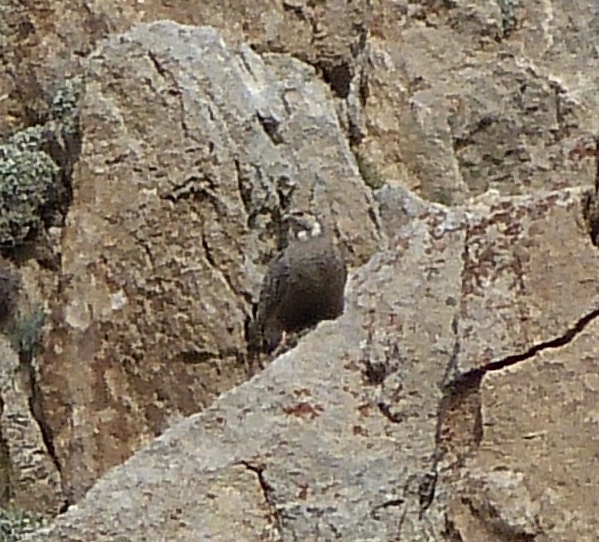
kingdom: Animalia
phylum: Chordata
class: Aves
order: Galliformes
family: Phasianidae
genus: Tetraogallus
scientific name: Tetraogallus caspius
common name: Caspian snowcock
